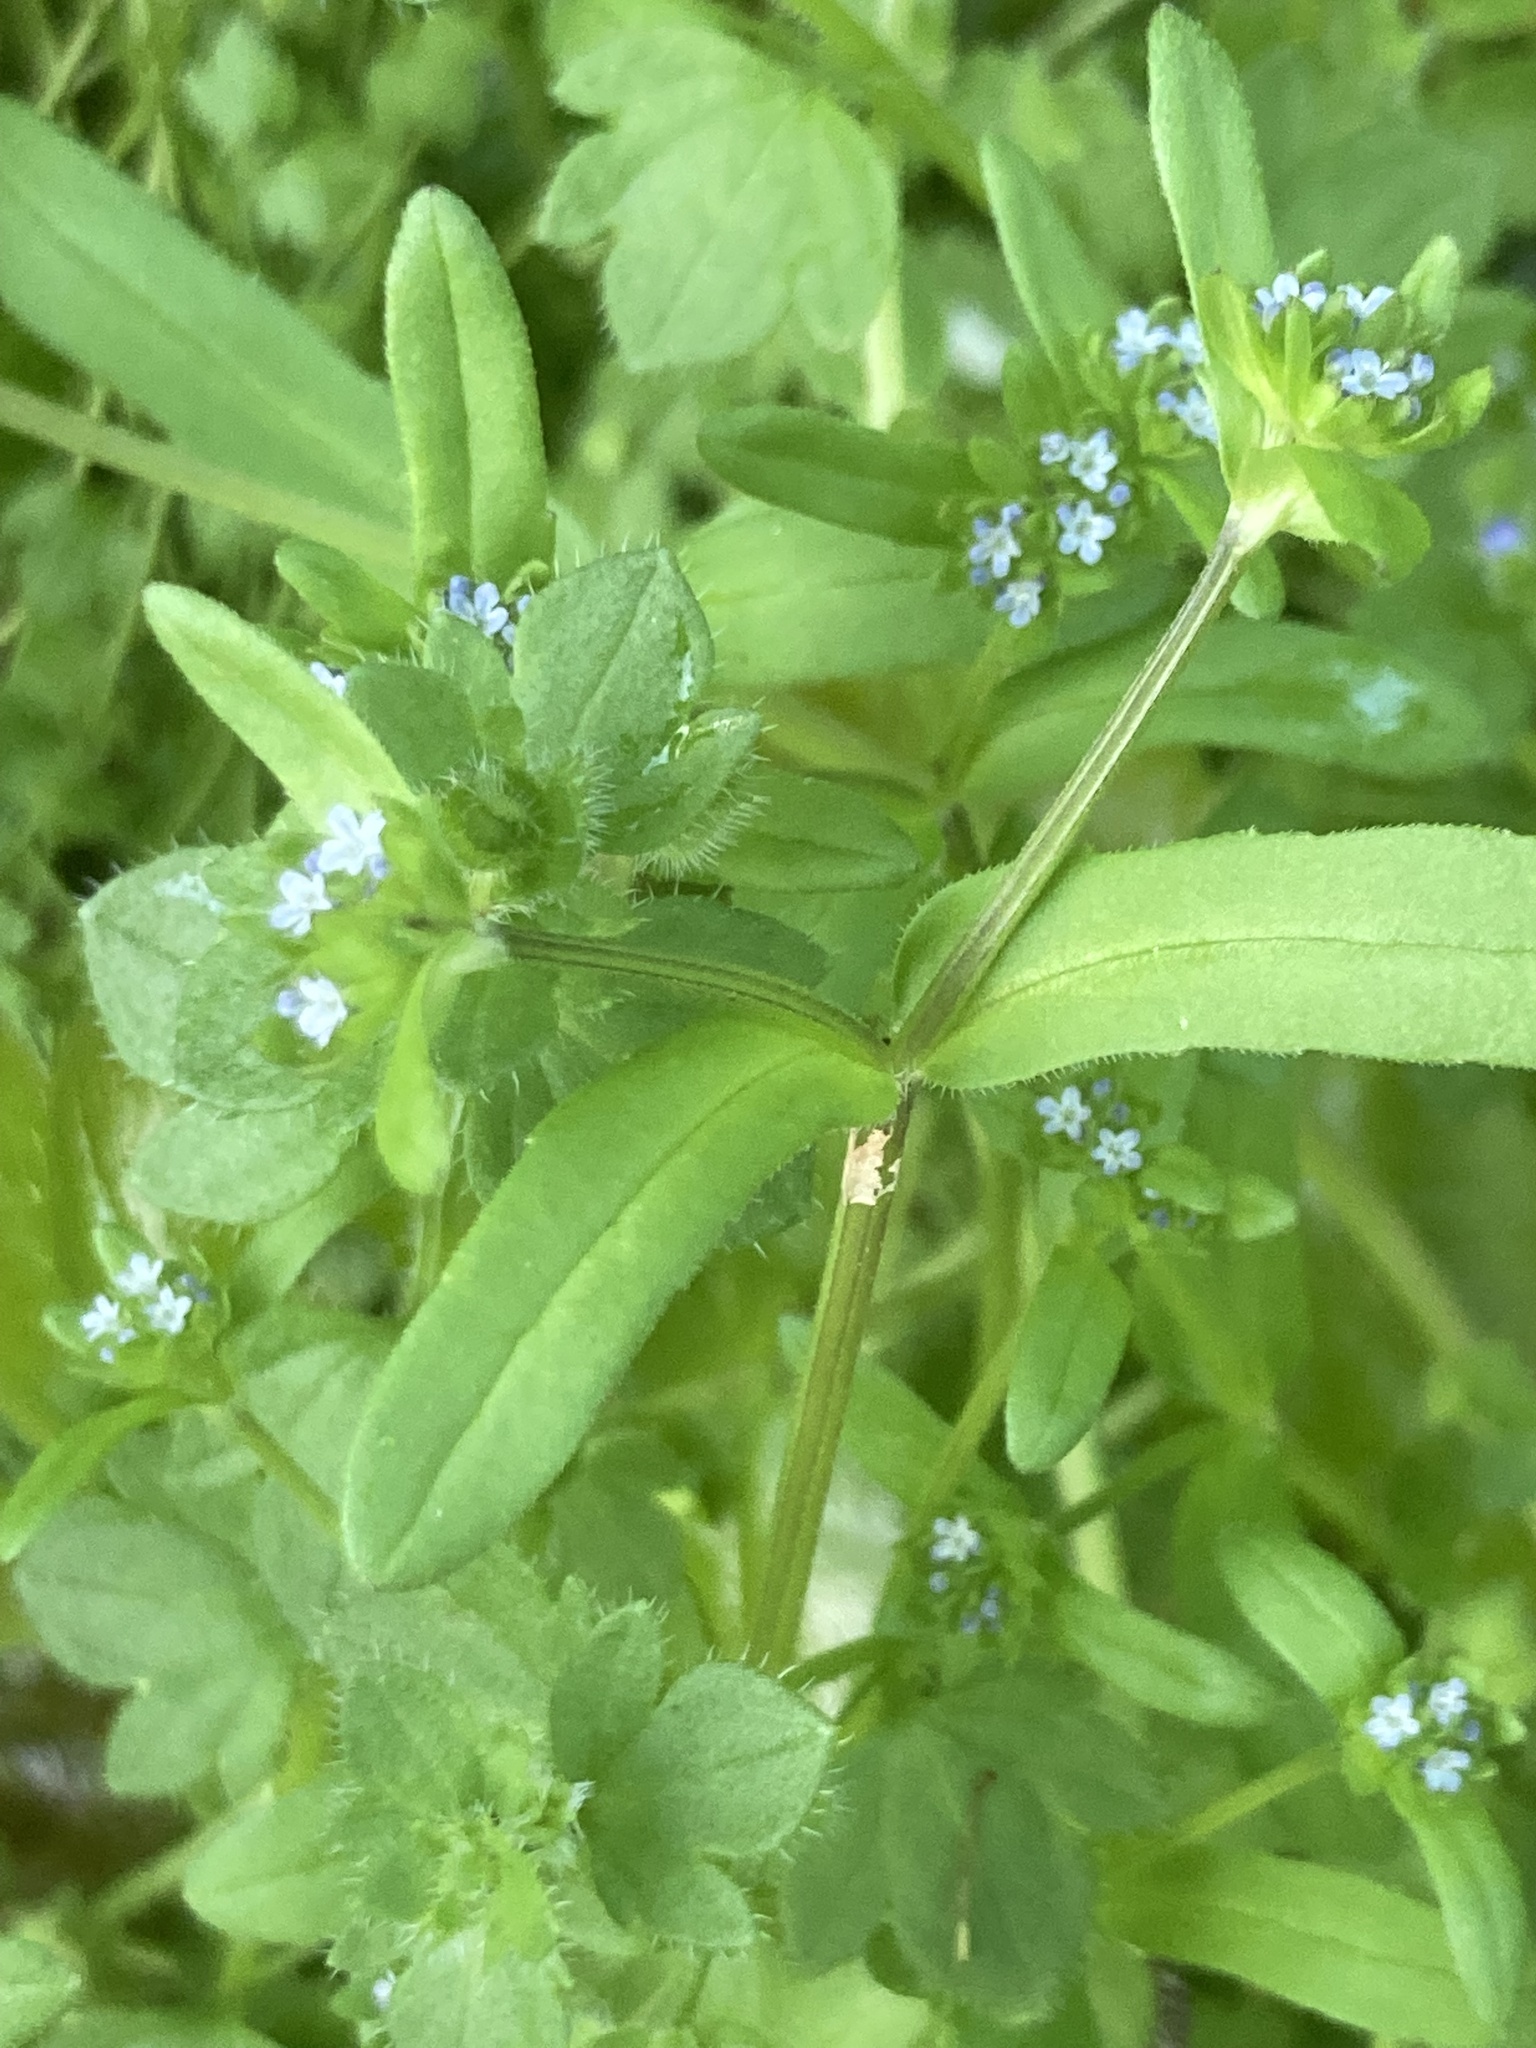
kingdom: Plantae
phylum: Tracheophyta
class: Magnoliopsida
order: Dipsacales
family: Caprifoliaceae
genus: Valerianella
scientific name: Valerianella locusta
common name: Common cornsalad
